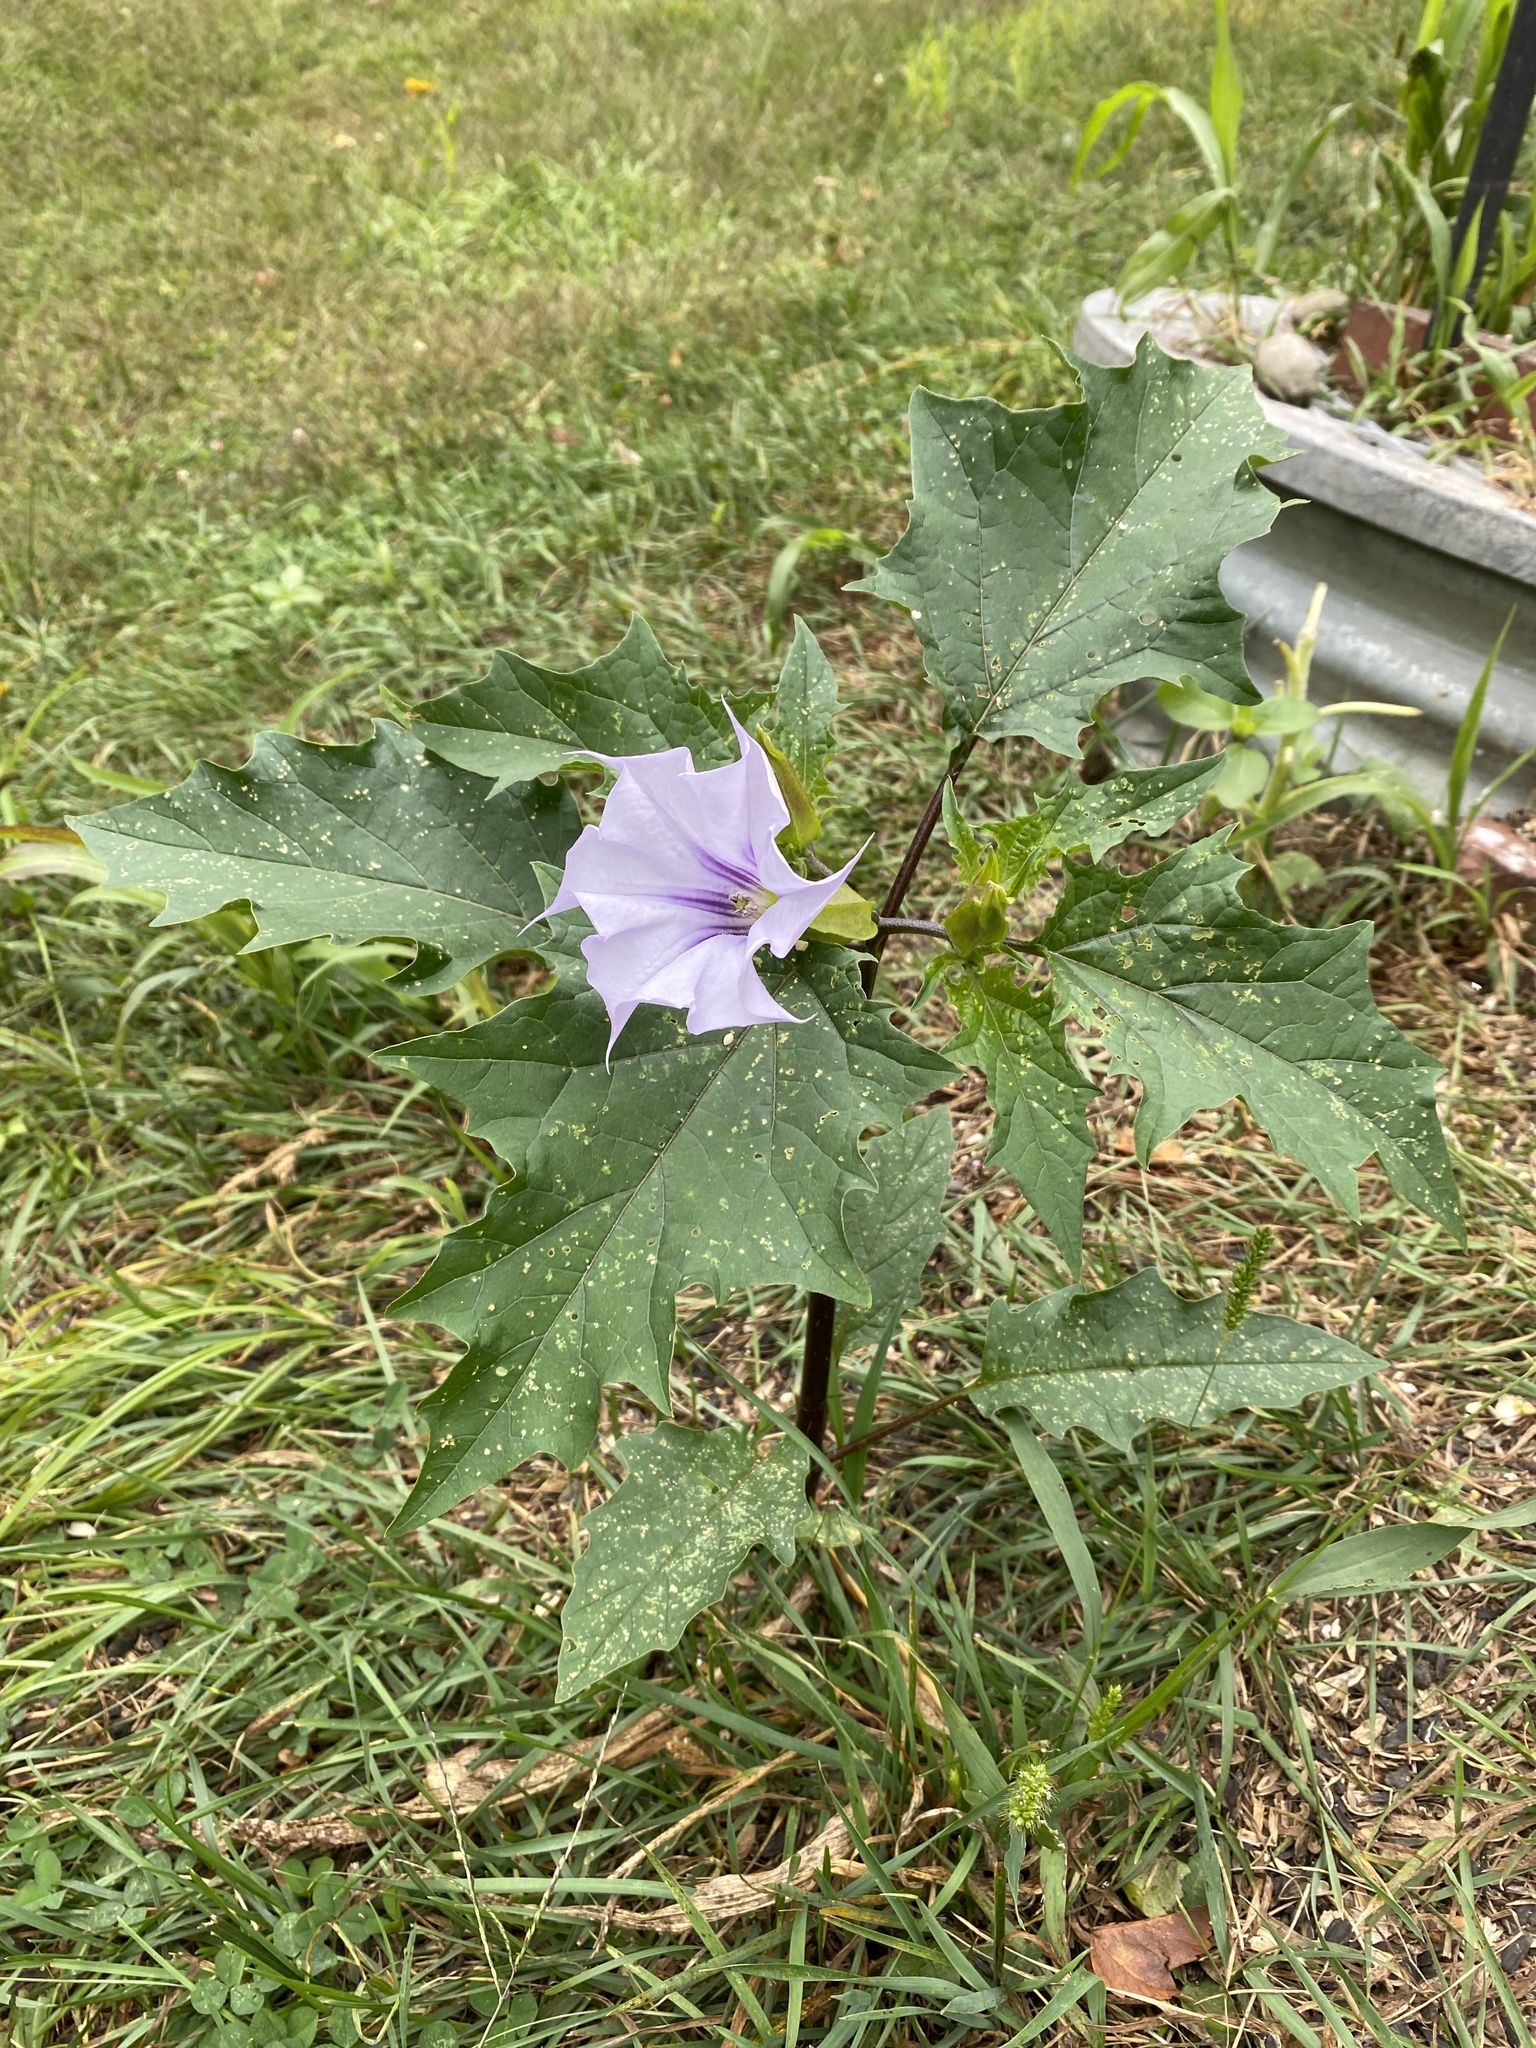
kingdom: Plantae
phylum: Tracheophyta
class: Magnoliopsida
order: Solanales
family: Solanaceae
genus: Datura
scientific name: Datura stramonium
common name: Thorn-apple
